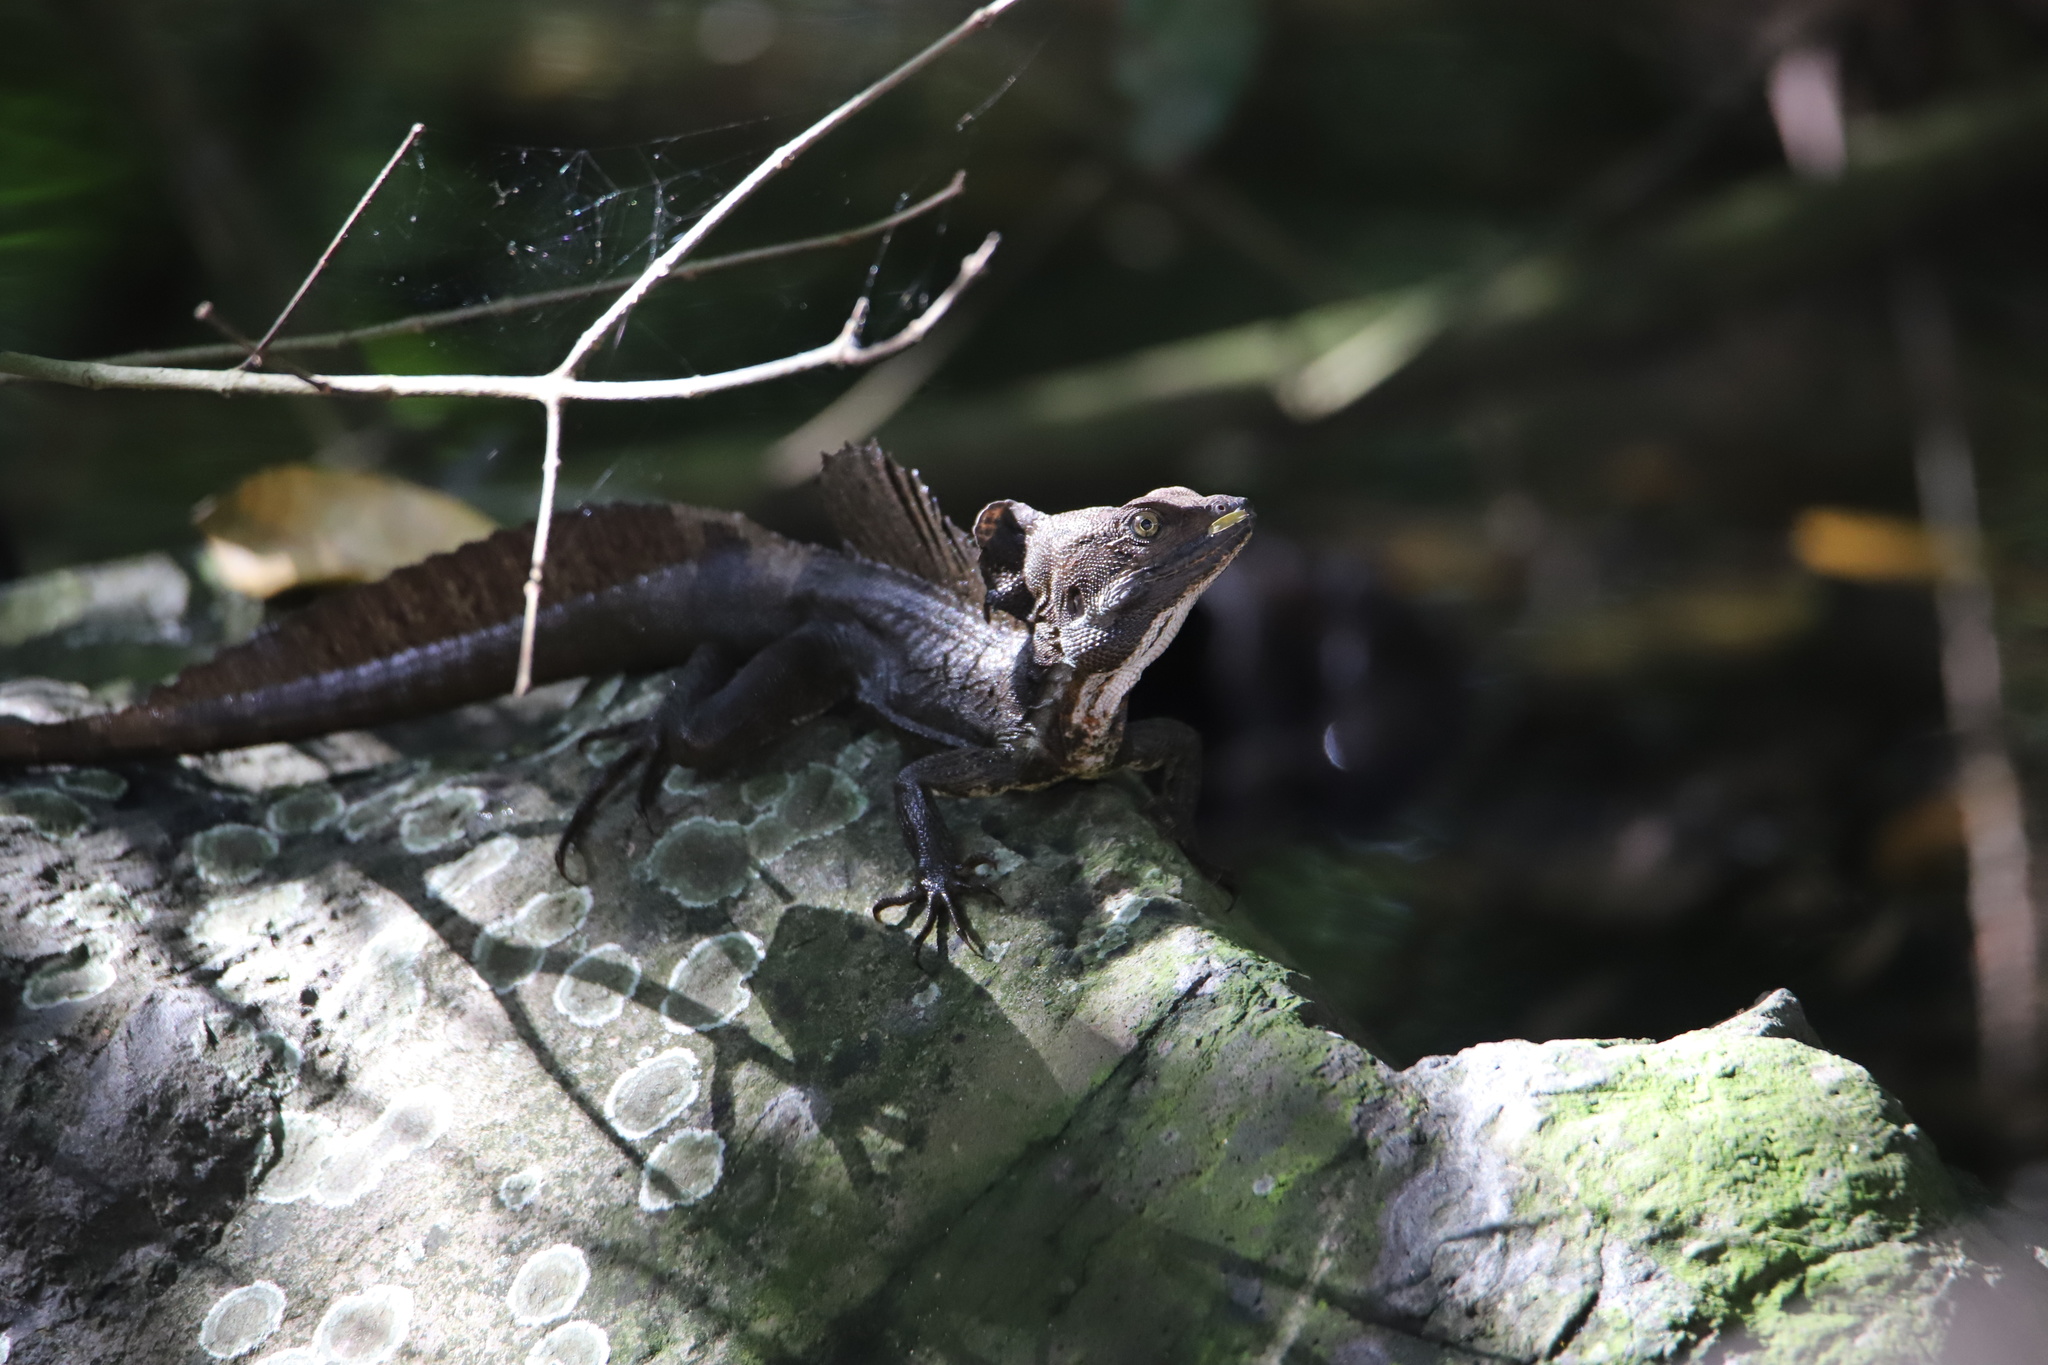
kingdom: Animalia
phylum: Chordata
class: Squamata
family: Corytophanidae
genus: Basiliscus
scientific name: Basiliscus basiliscus
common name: Common basilisk
